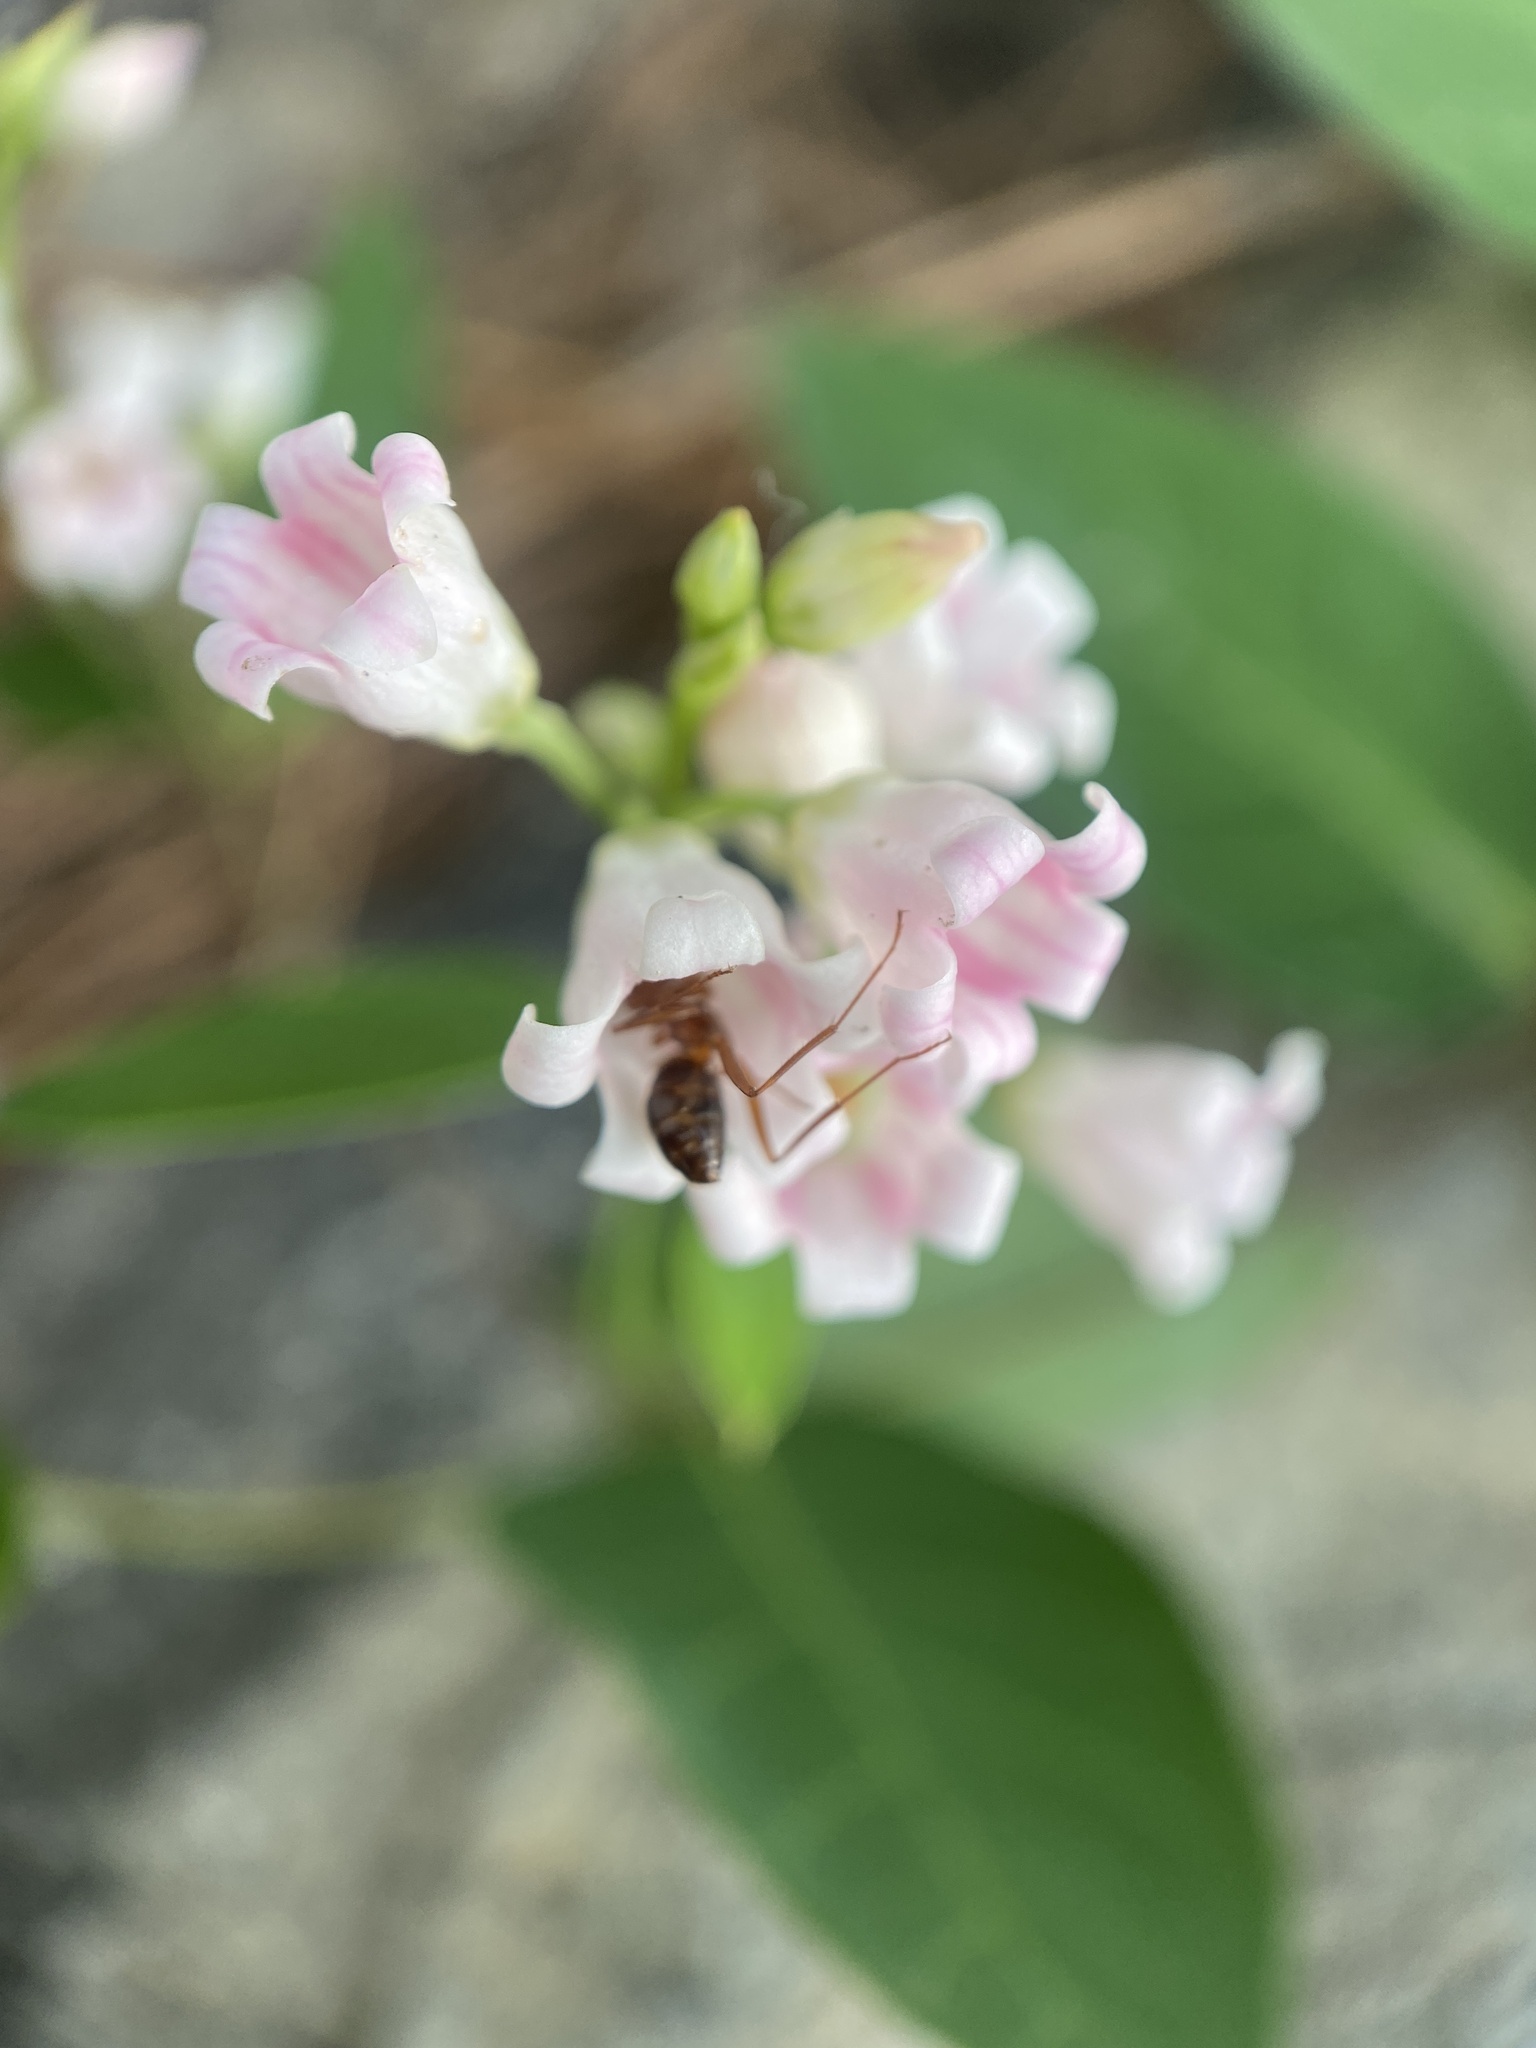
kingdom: Plantae
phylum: Tracheophyta
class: Magnoliopsida
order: Gentianales
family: Apocynaceae
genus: Apocynum
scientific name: Apocynum androsaemifolium
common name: Spreading dogbane
